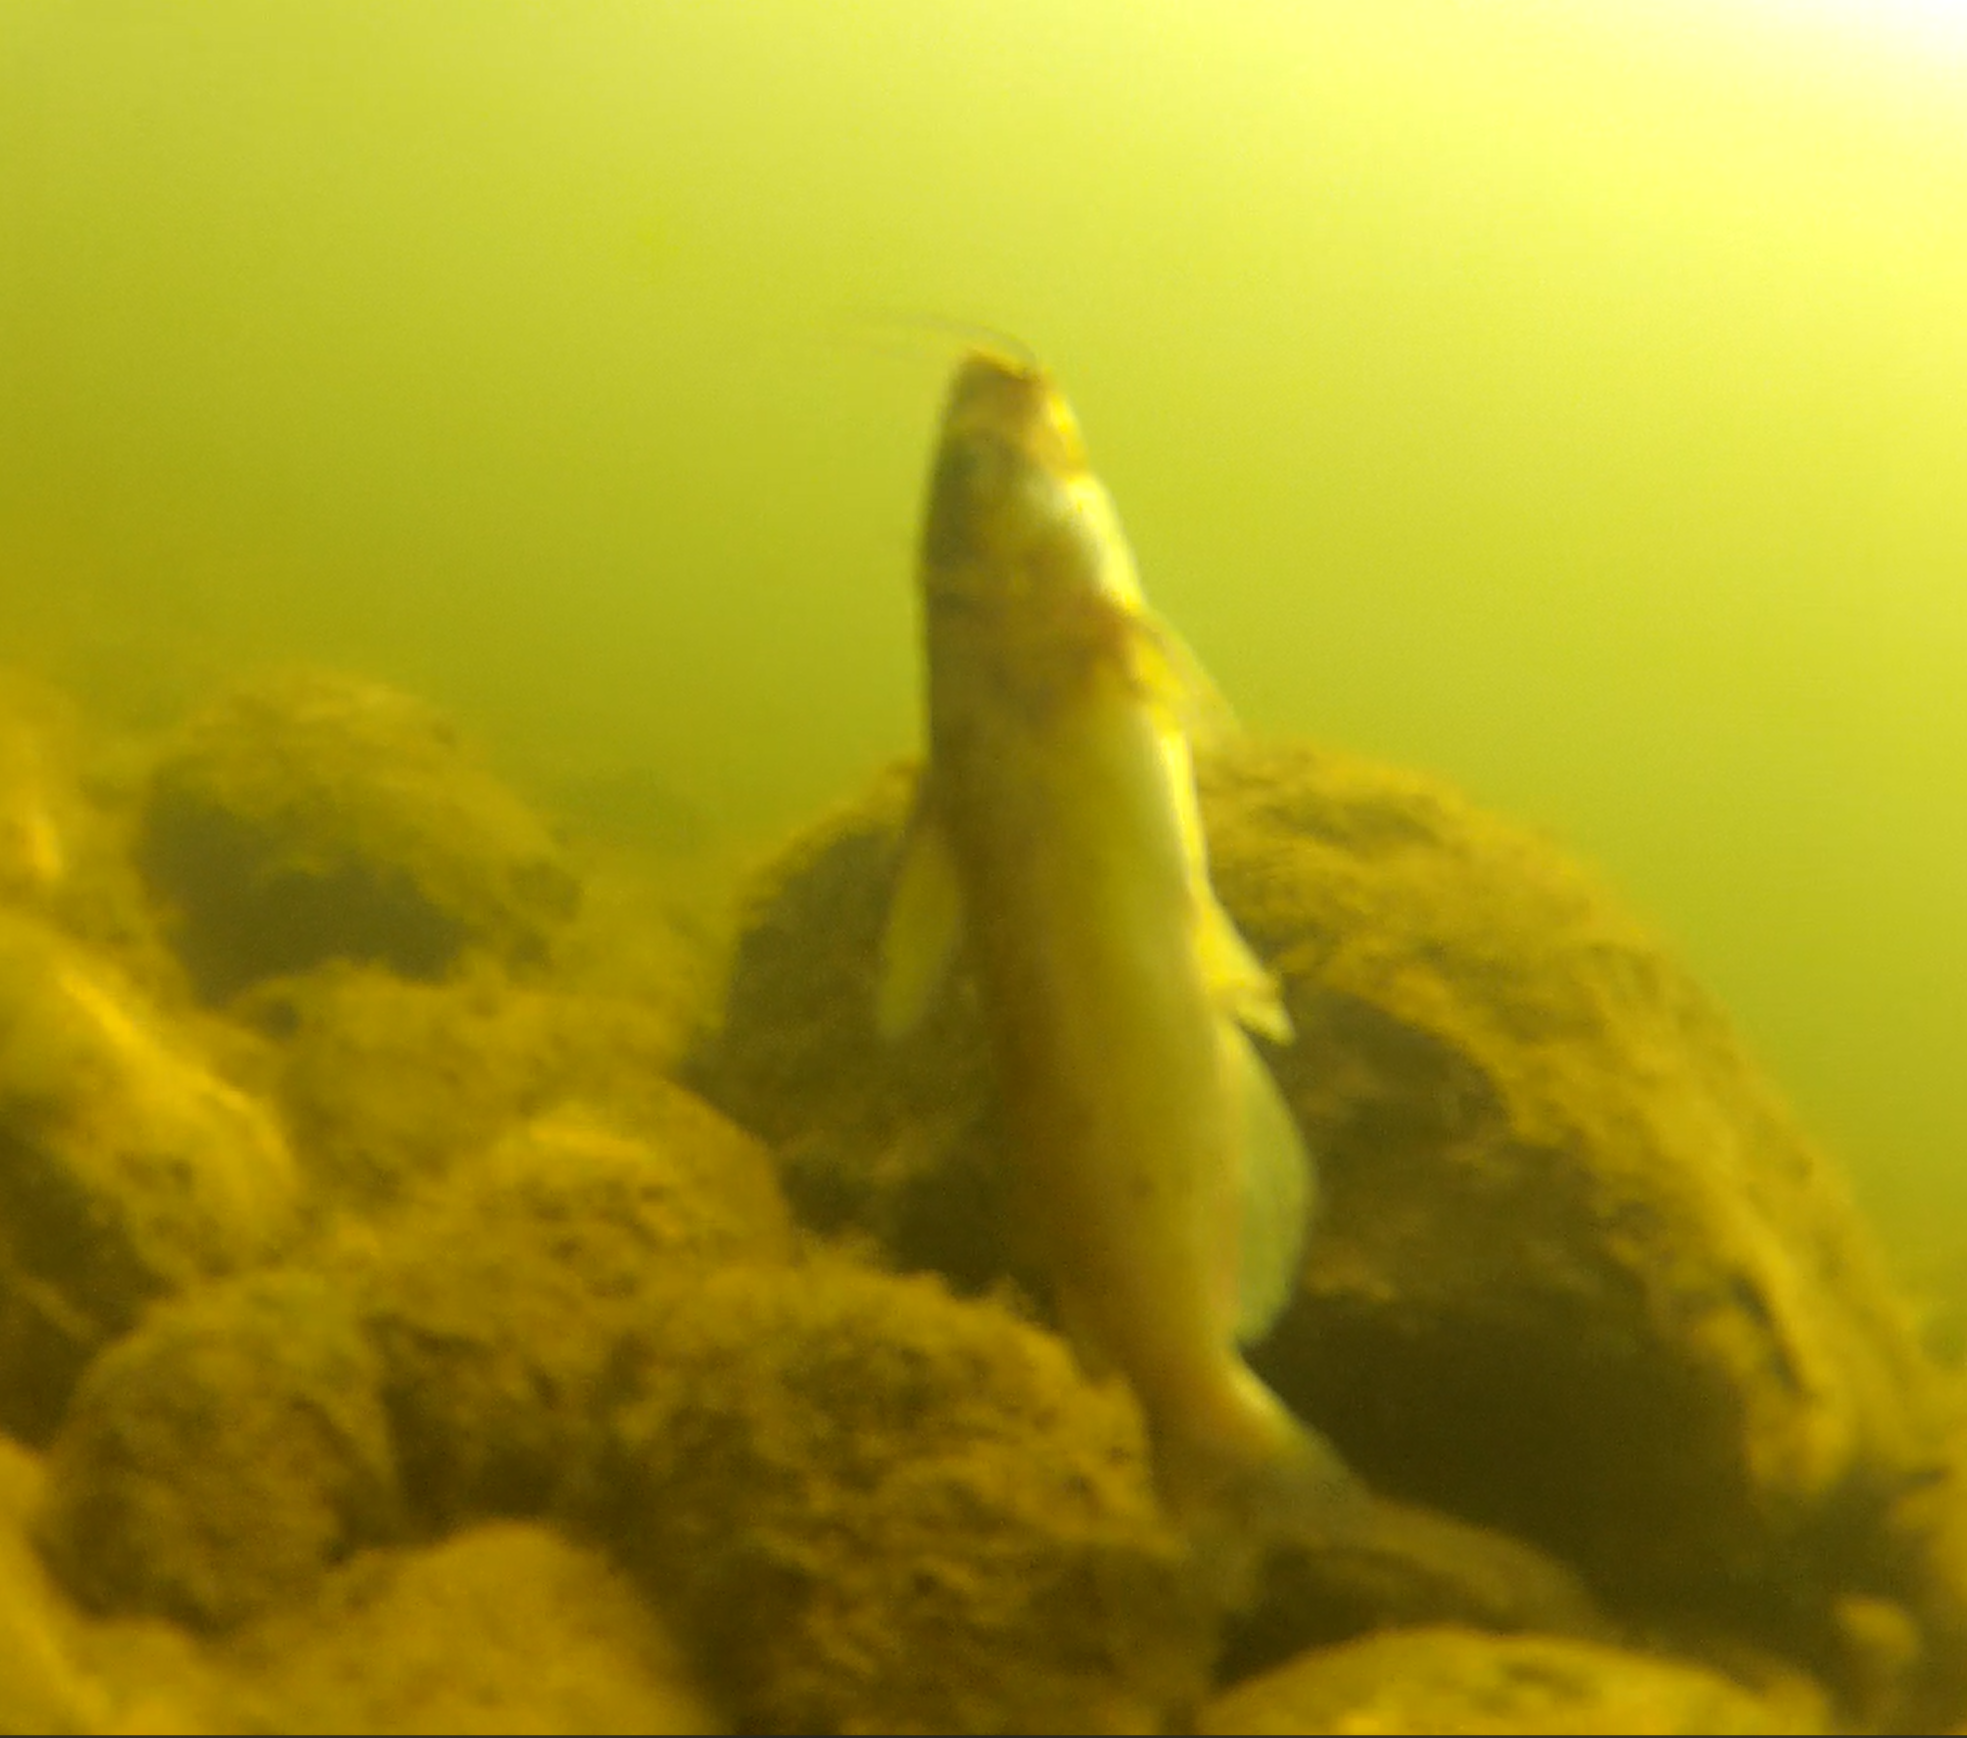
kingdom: Animalia
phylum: Chordata
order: Siluriformes
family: Ictaluridae
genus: Ictalurus
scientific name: Ictalurus punctatus
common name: Channel catfish
